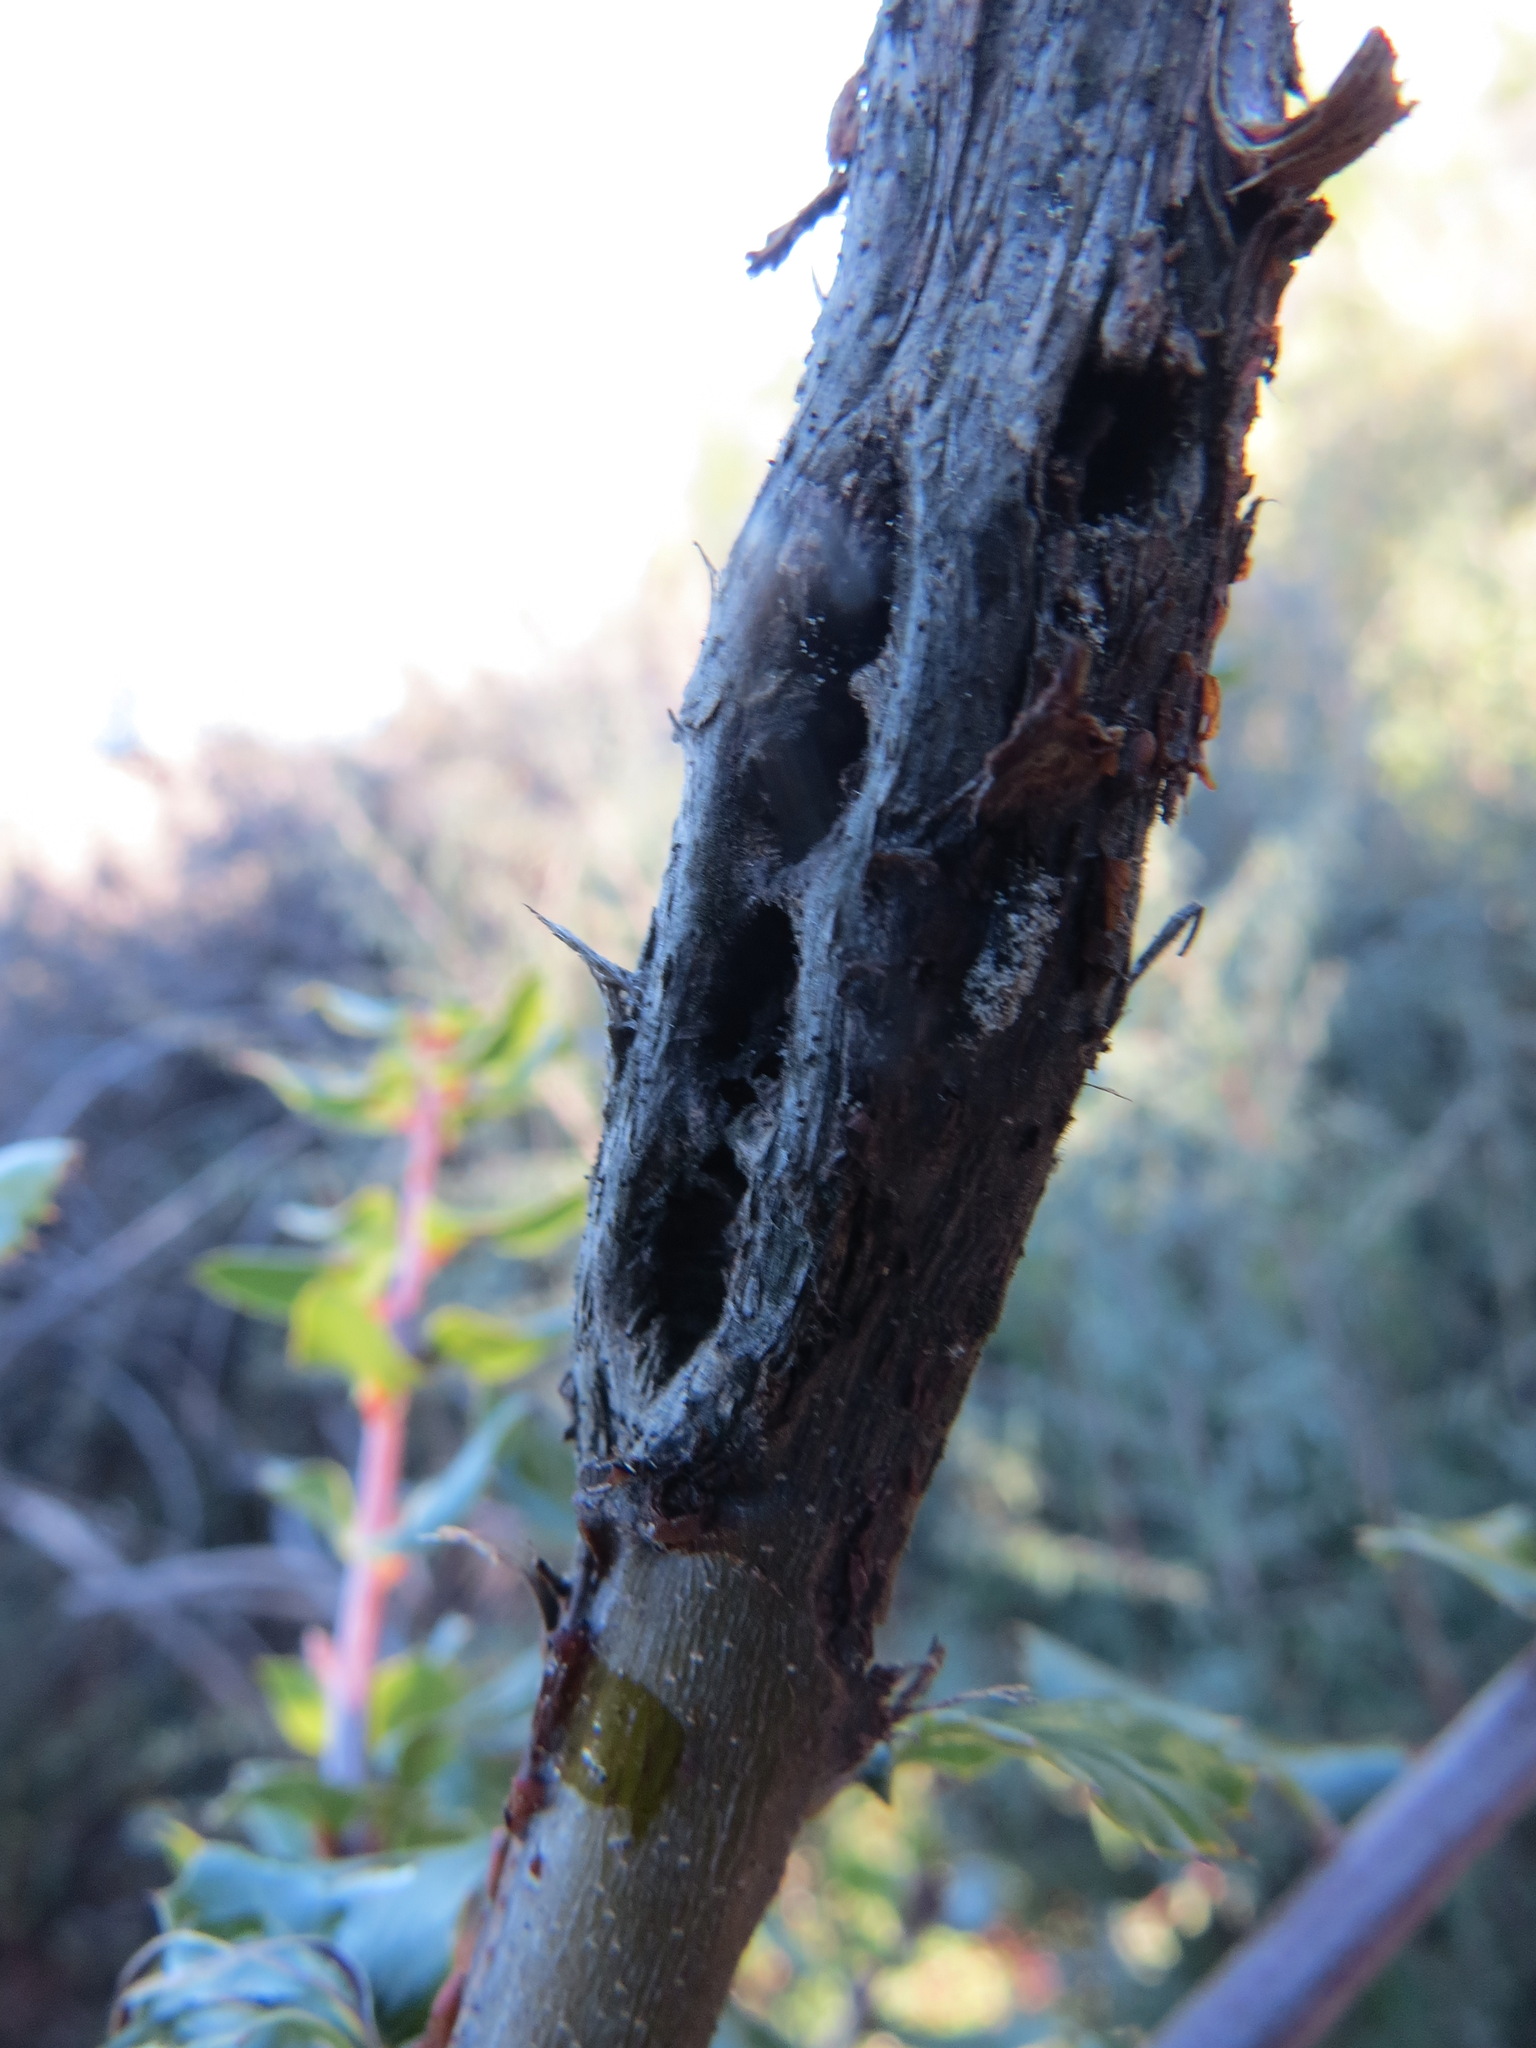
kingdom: Animalia
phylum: Arthropoda
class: Insecta
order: Hymenoptera
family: Cynipidae
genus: Callirhytis
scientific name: Callirhytis
